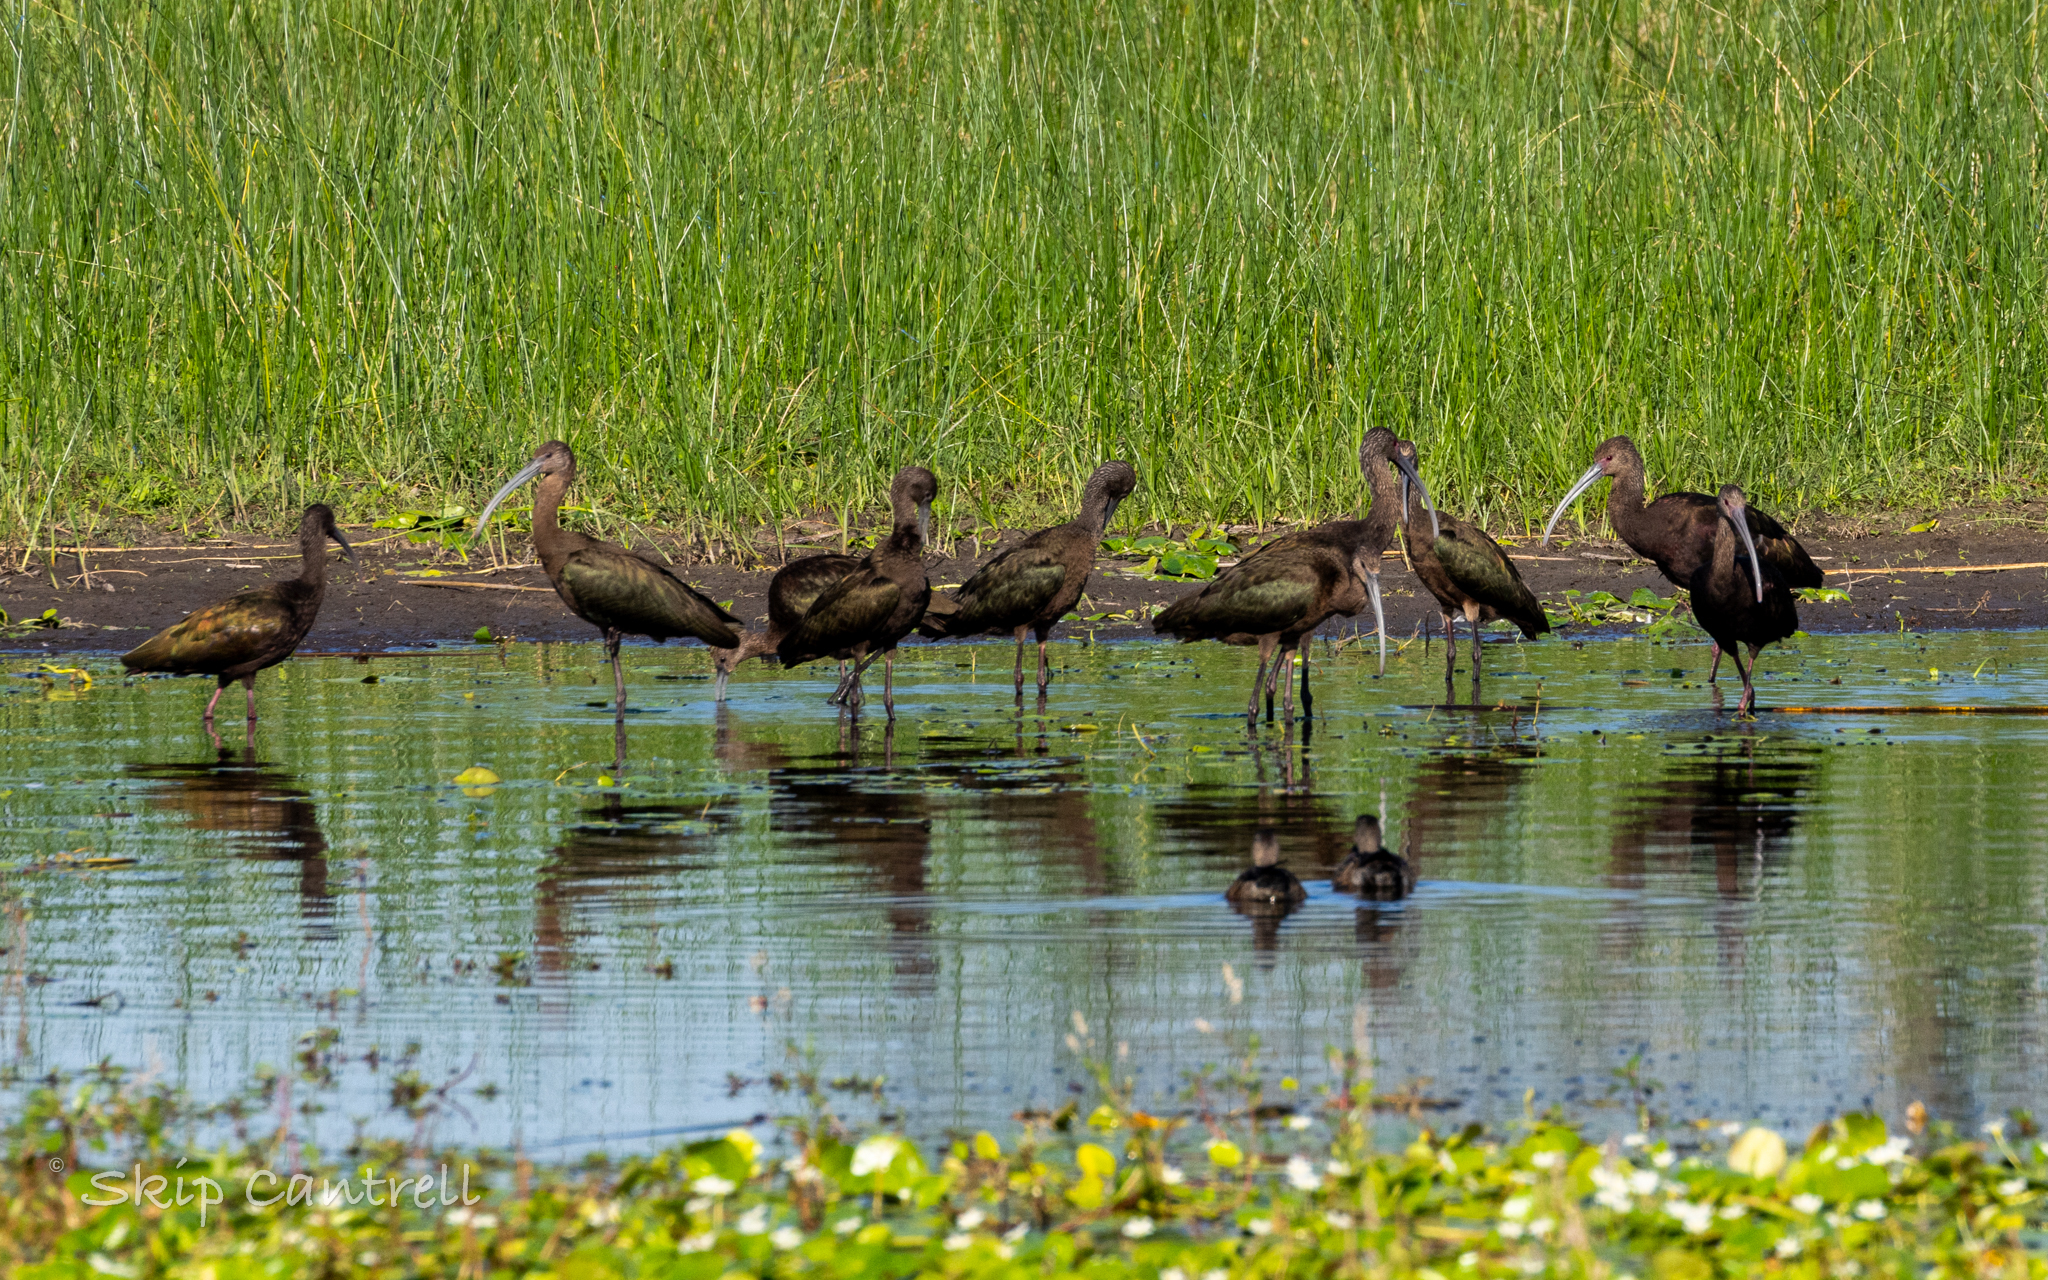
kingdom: Animalia
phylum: Chordata
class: Aves
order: Pelecaniformes
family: Threskiornithidae
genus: Plegadis
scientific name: Plegadis chihi
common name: White-faced ibis
